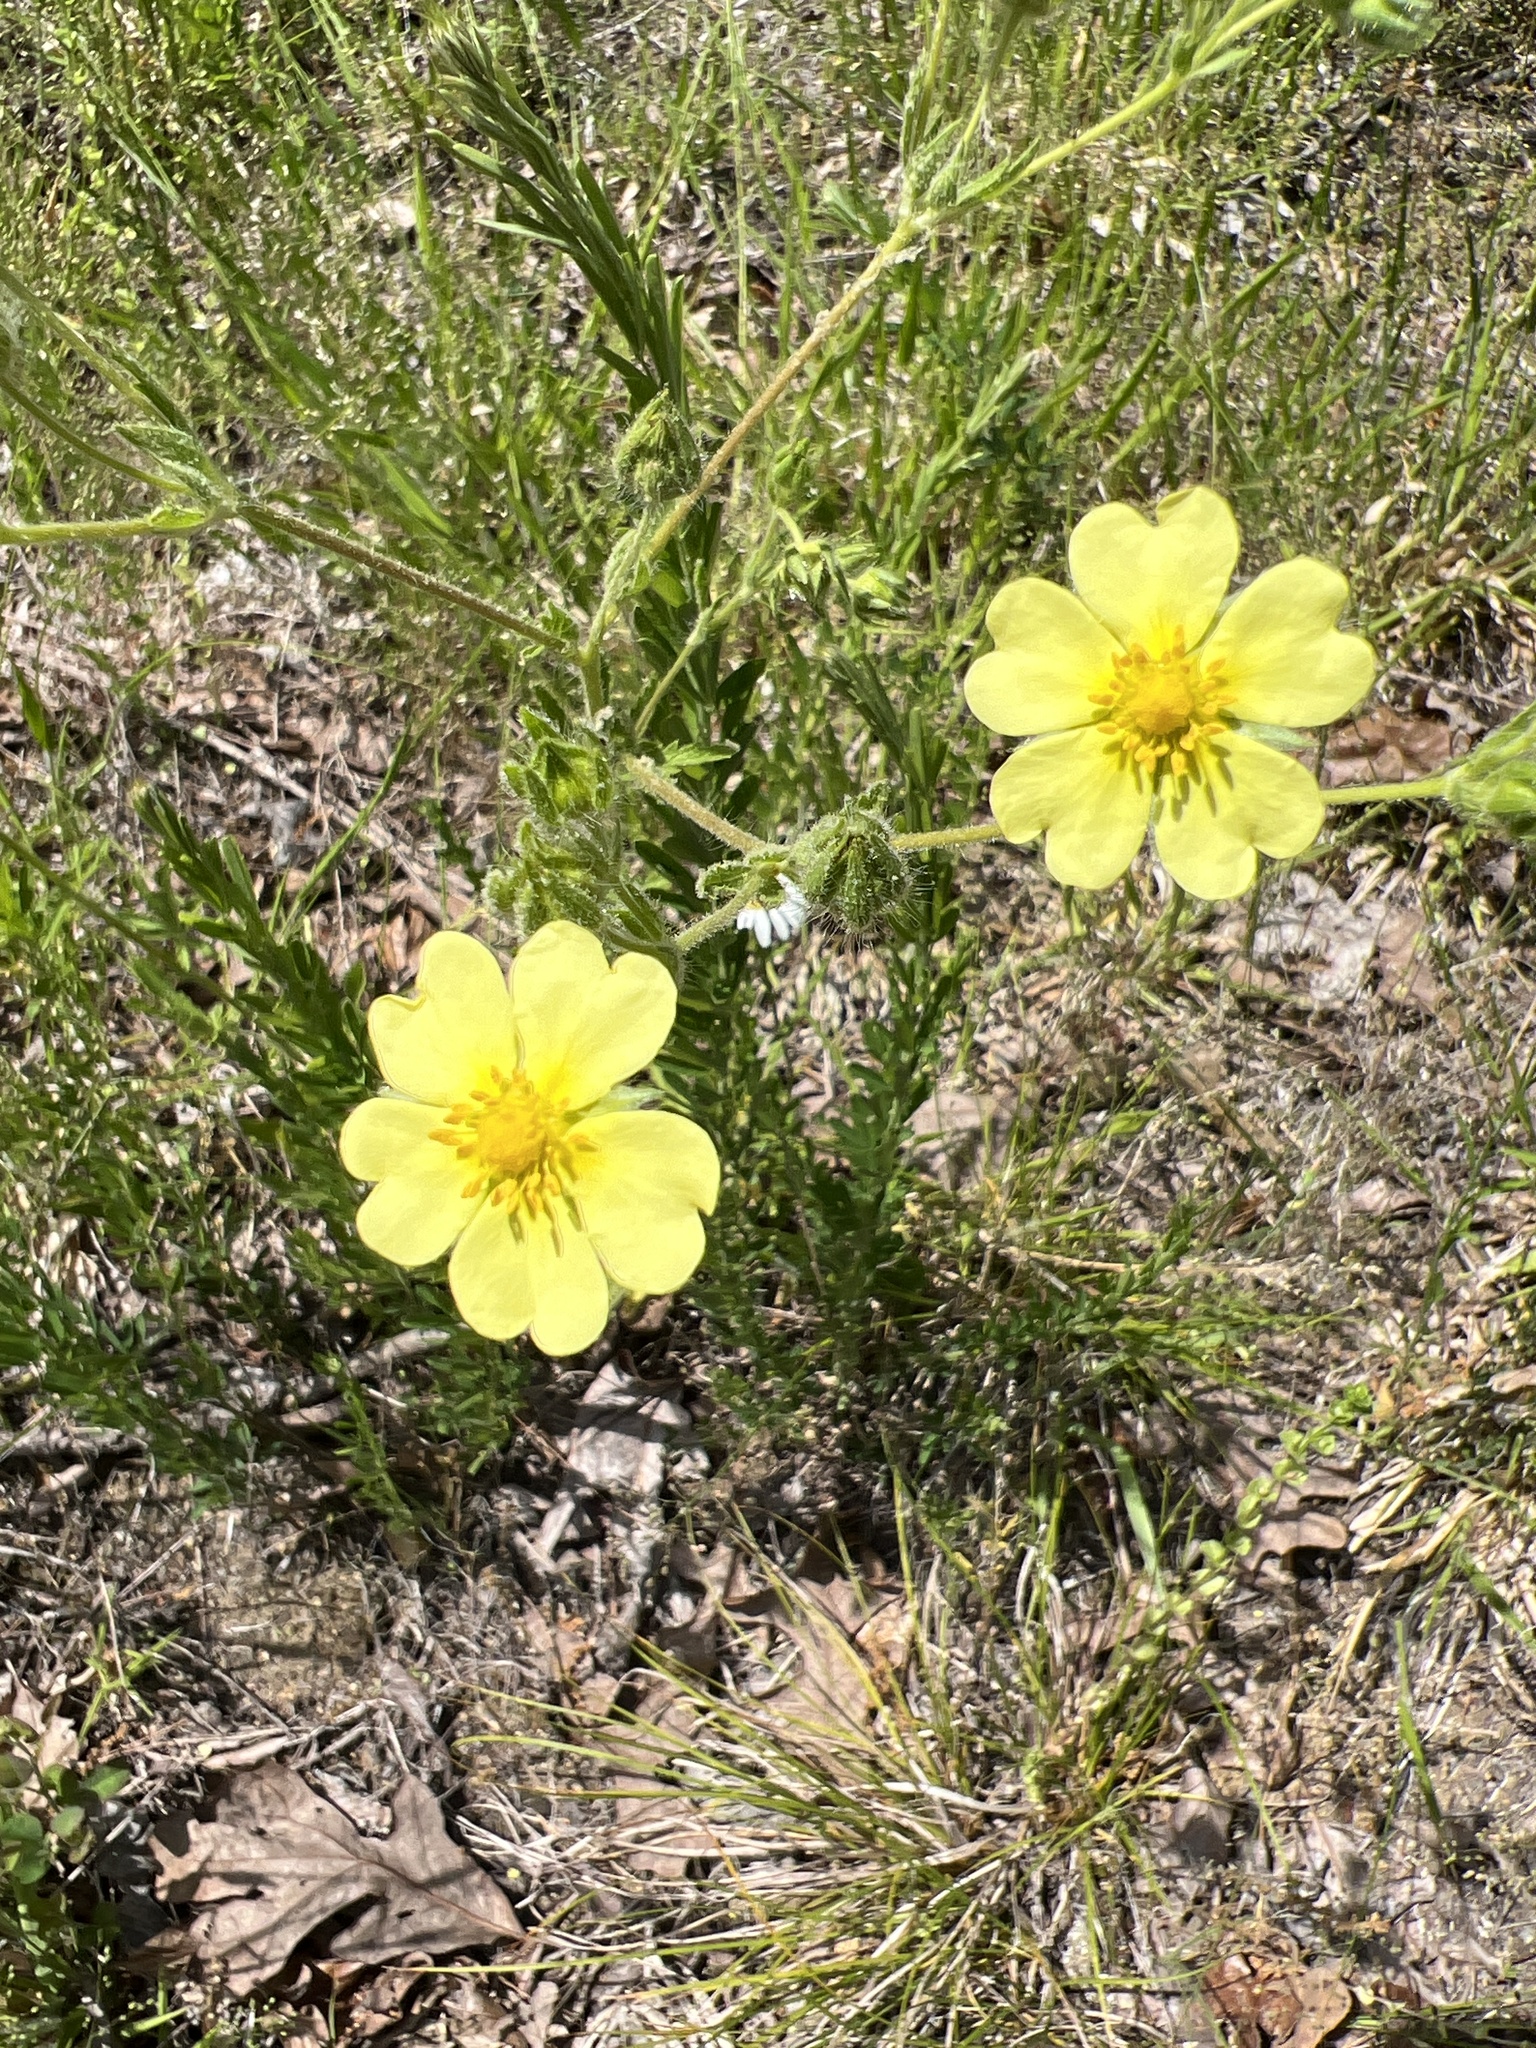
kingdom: Plantae
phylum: Tracheophyta
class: Magnoliopsida
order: Rosales
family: Rosaceae
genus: Potentilla
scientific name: Potentilla recta
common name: Sulphur cinquefoil
